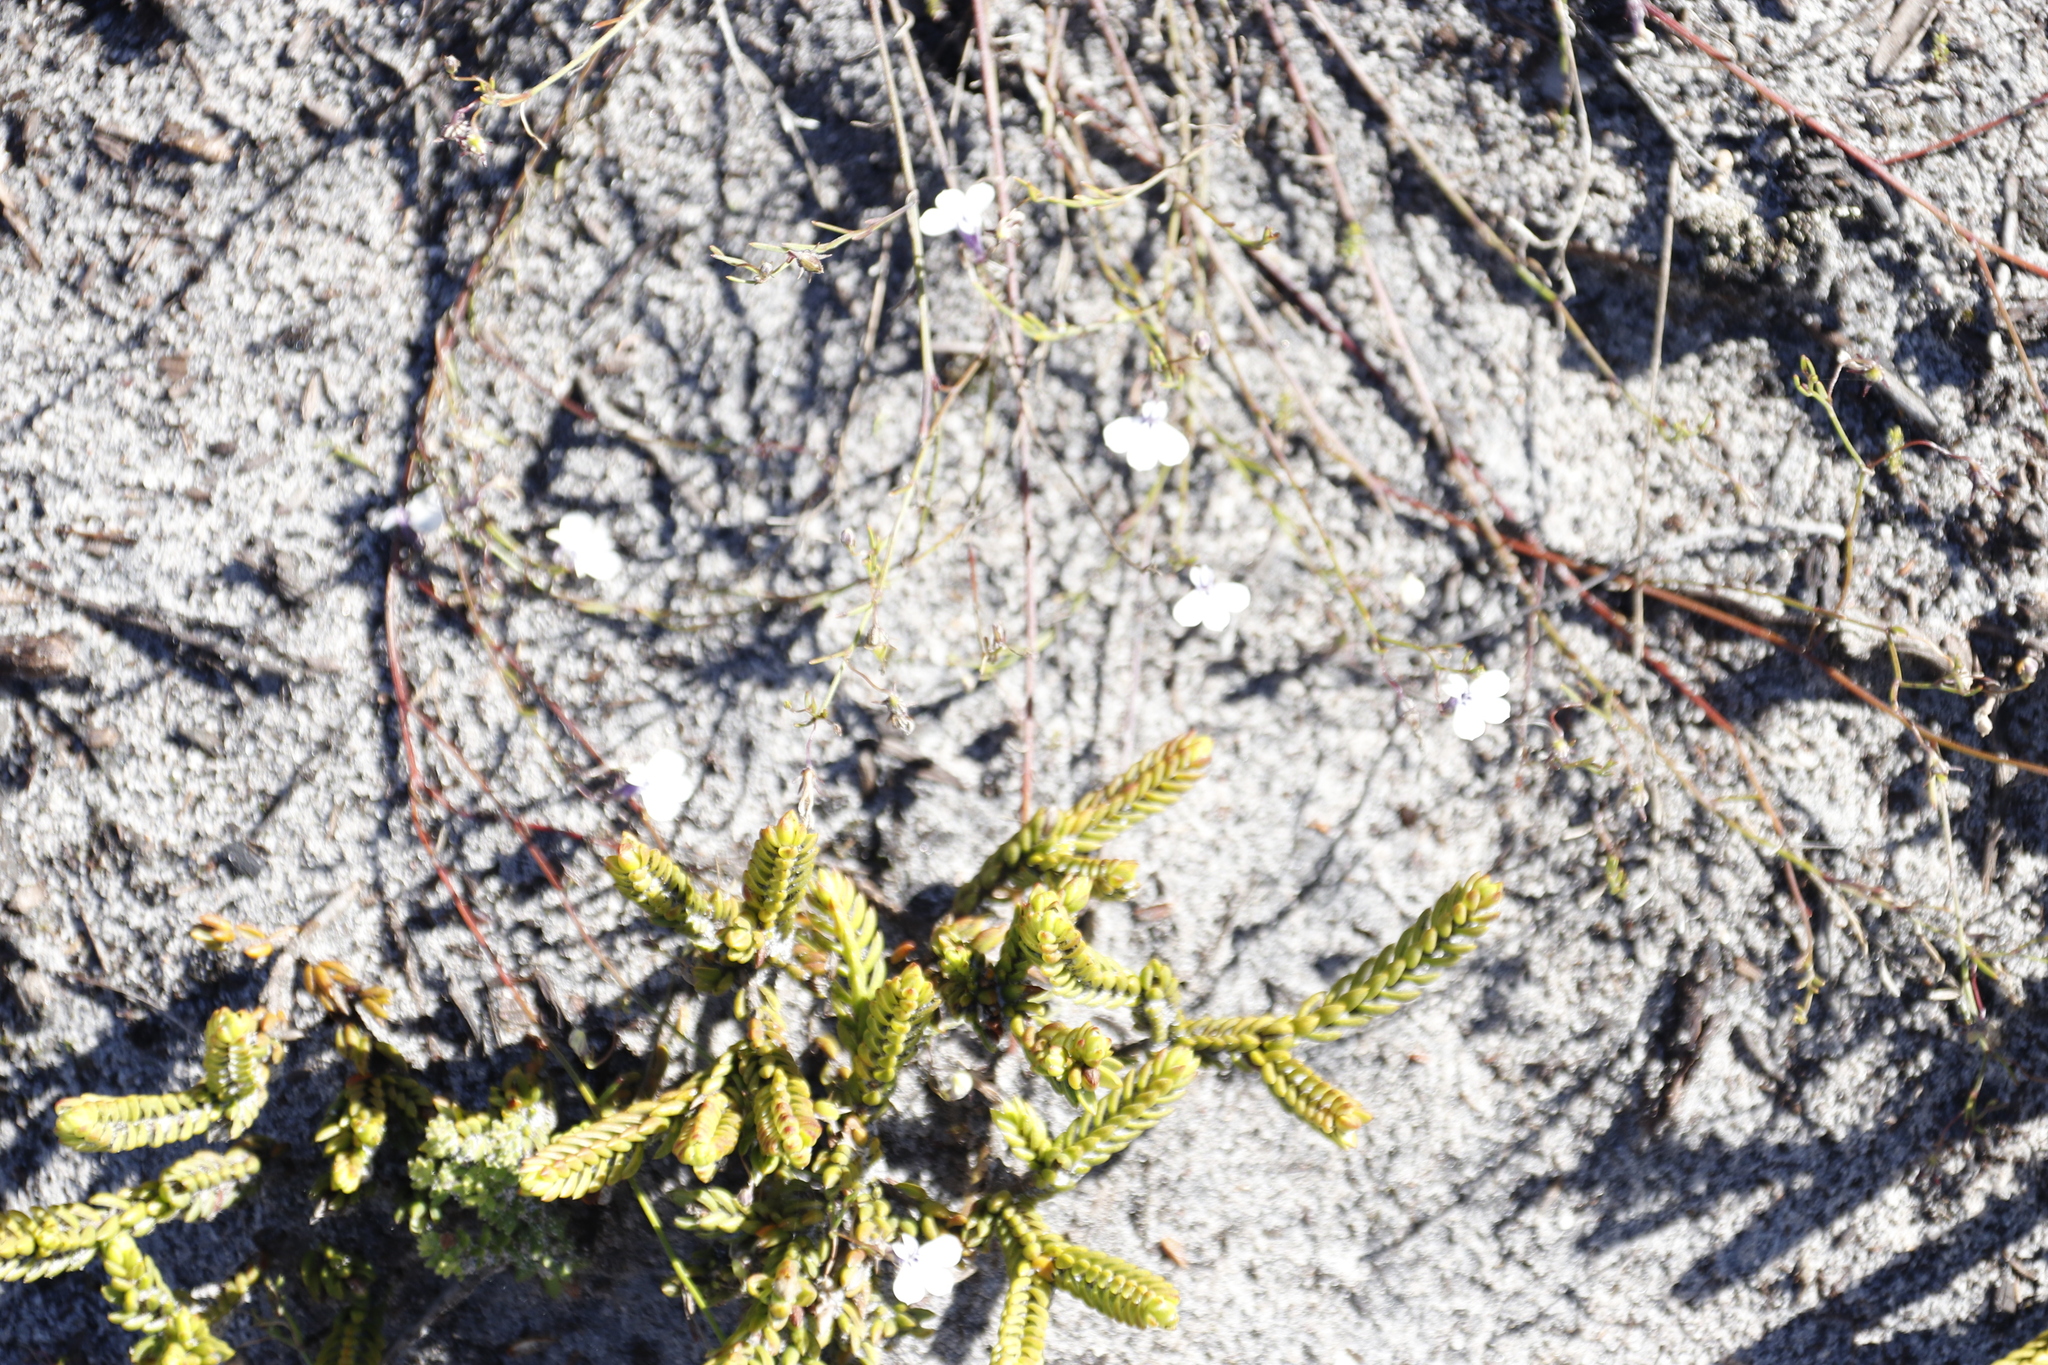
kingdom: Plantae
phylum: Tracheophyta
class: Magnoliopsida
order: Asterales
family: Campanulaceae
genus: Lobelia
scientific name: Lobelia setacea
